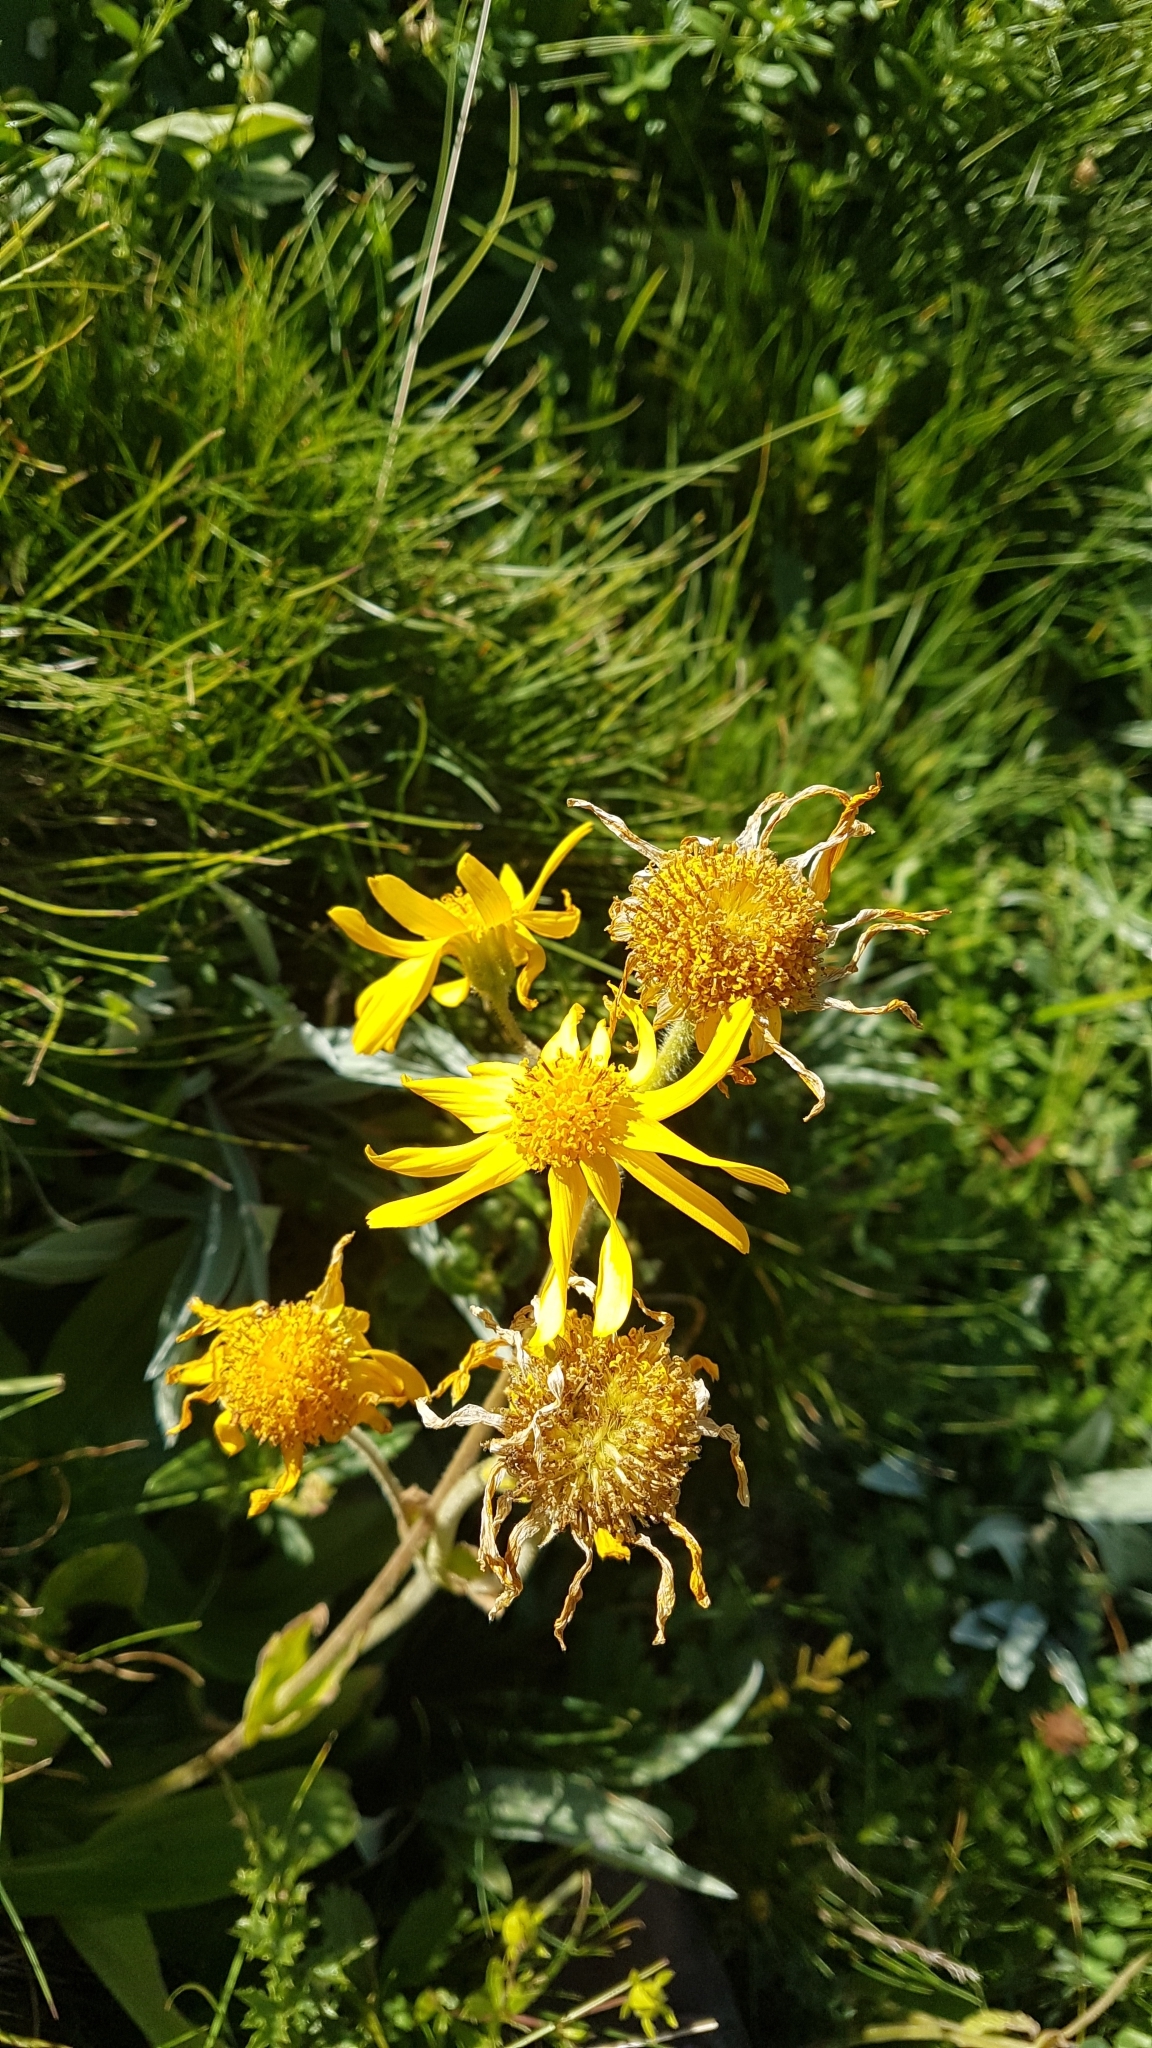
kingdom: Plantae
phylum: Tracheophyta
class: Magnoliopsida
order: Asterales
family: Asteraceae
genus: Arnica
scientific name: Arnica montana
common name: Leopard's bane
